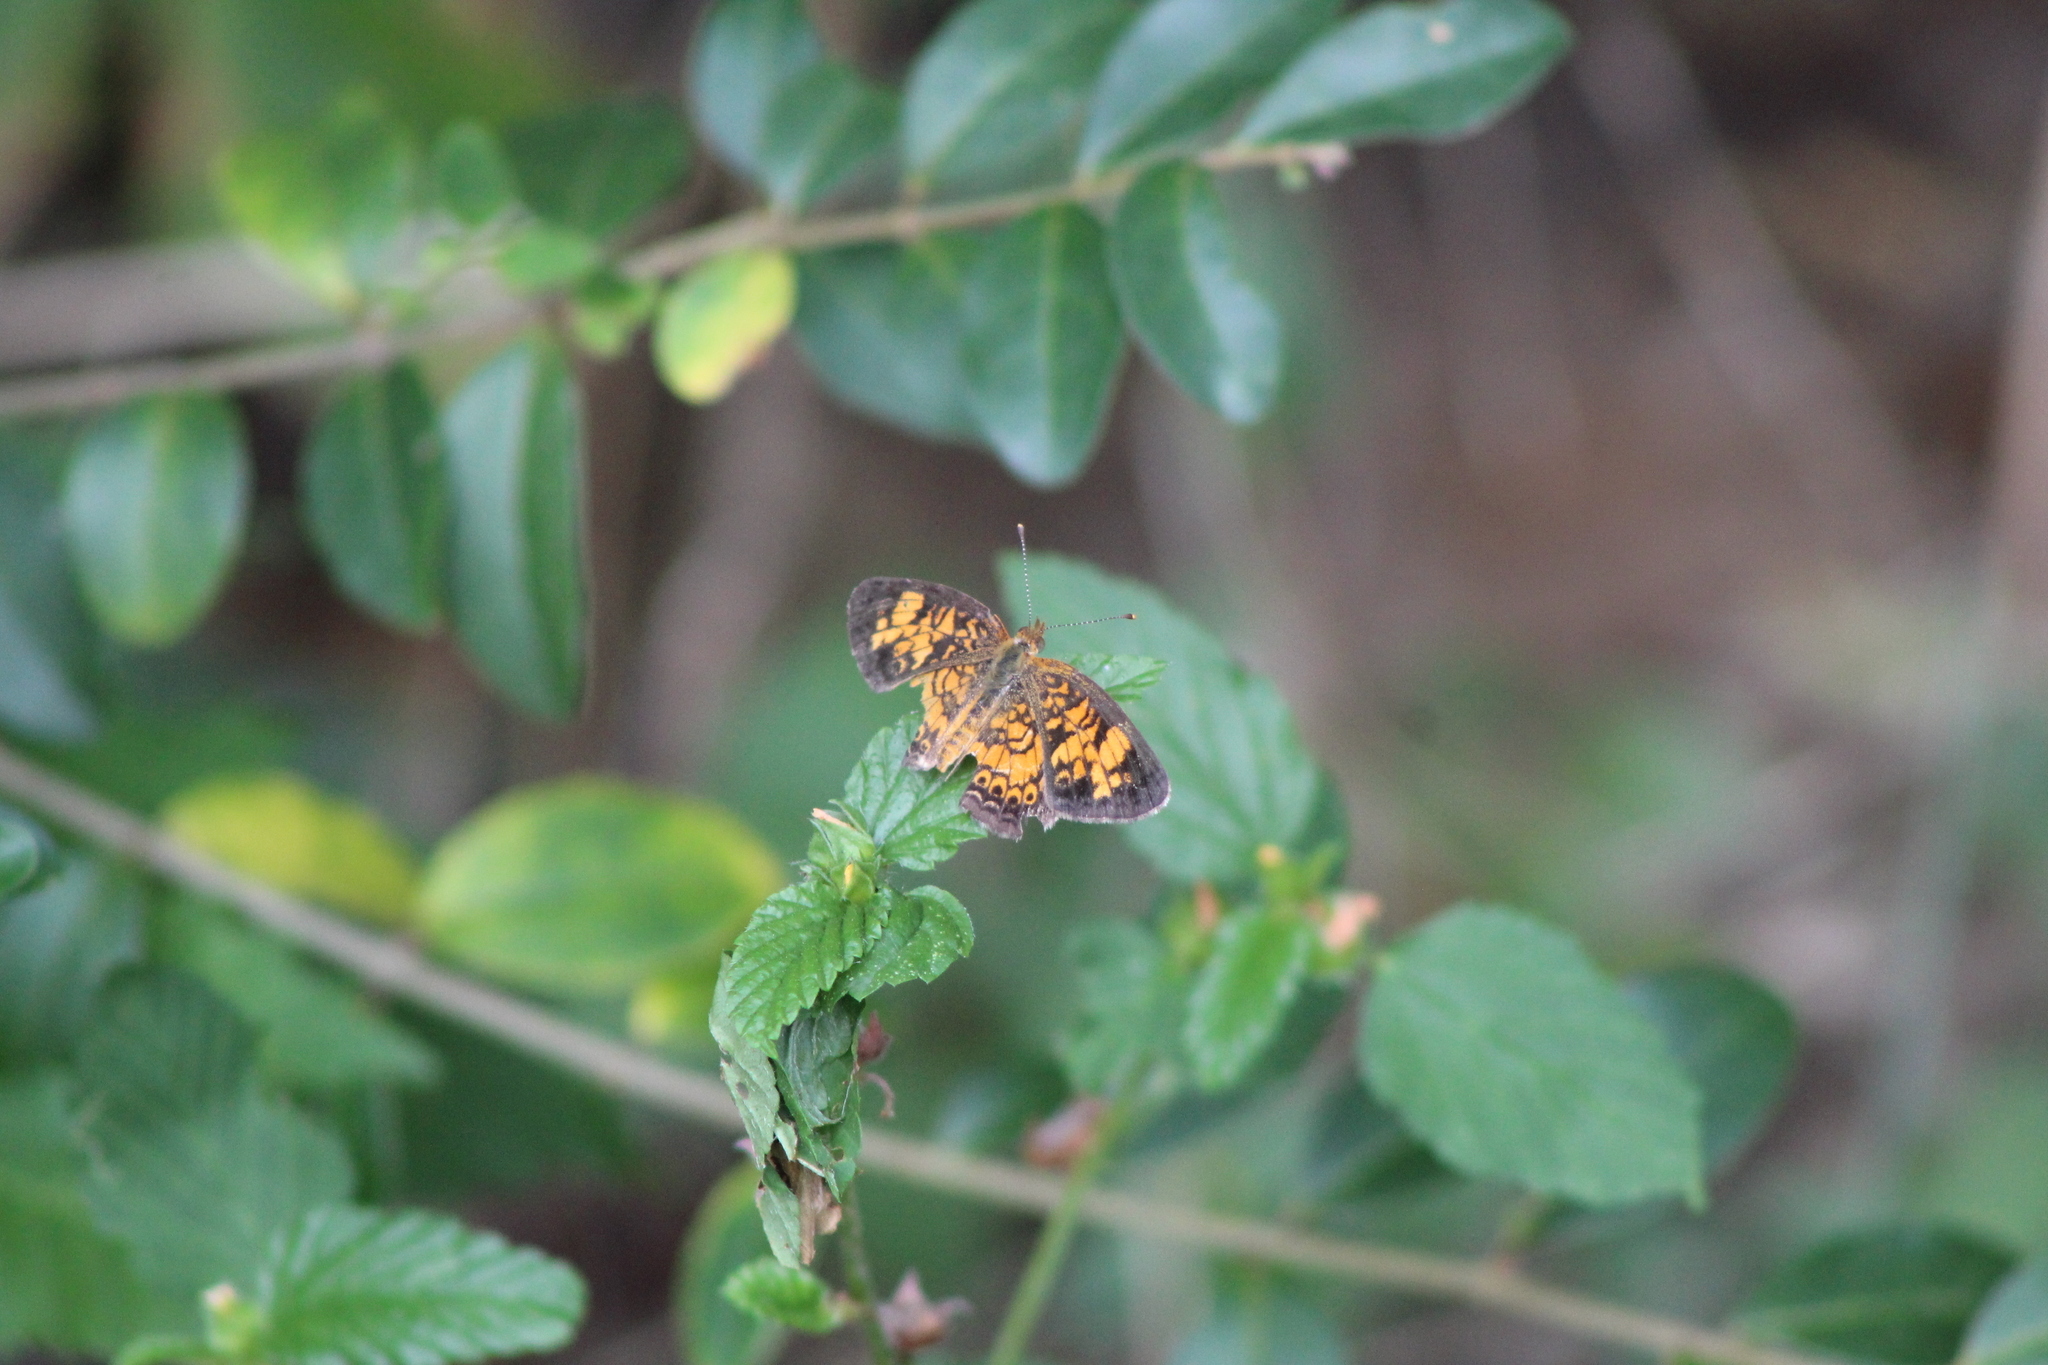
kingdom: Animalia
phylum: Arthropoda
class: Insecta
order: Lepidoptera
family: Nymphalidae
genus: Phyciodes
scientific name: Phyciodes tharos
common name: Pearl crescent
